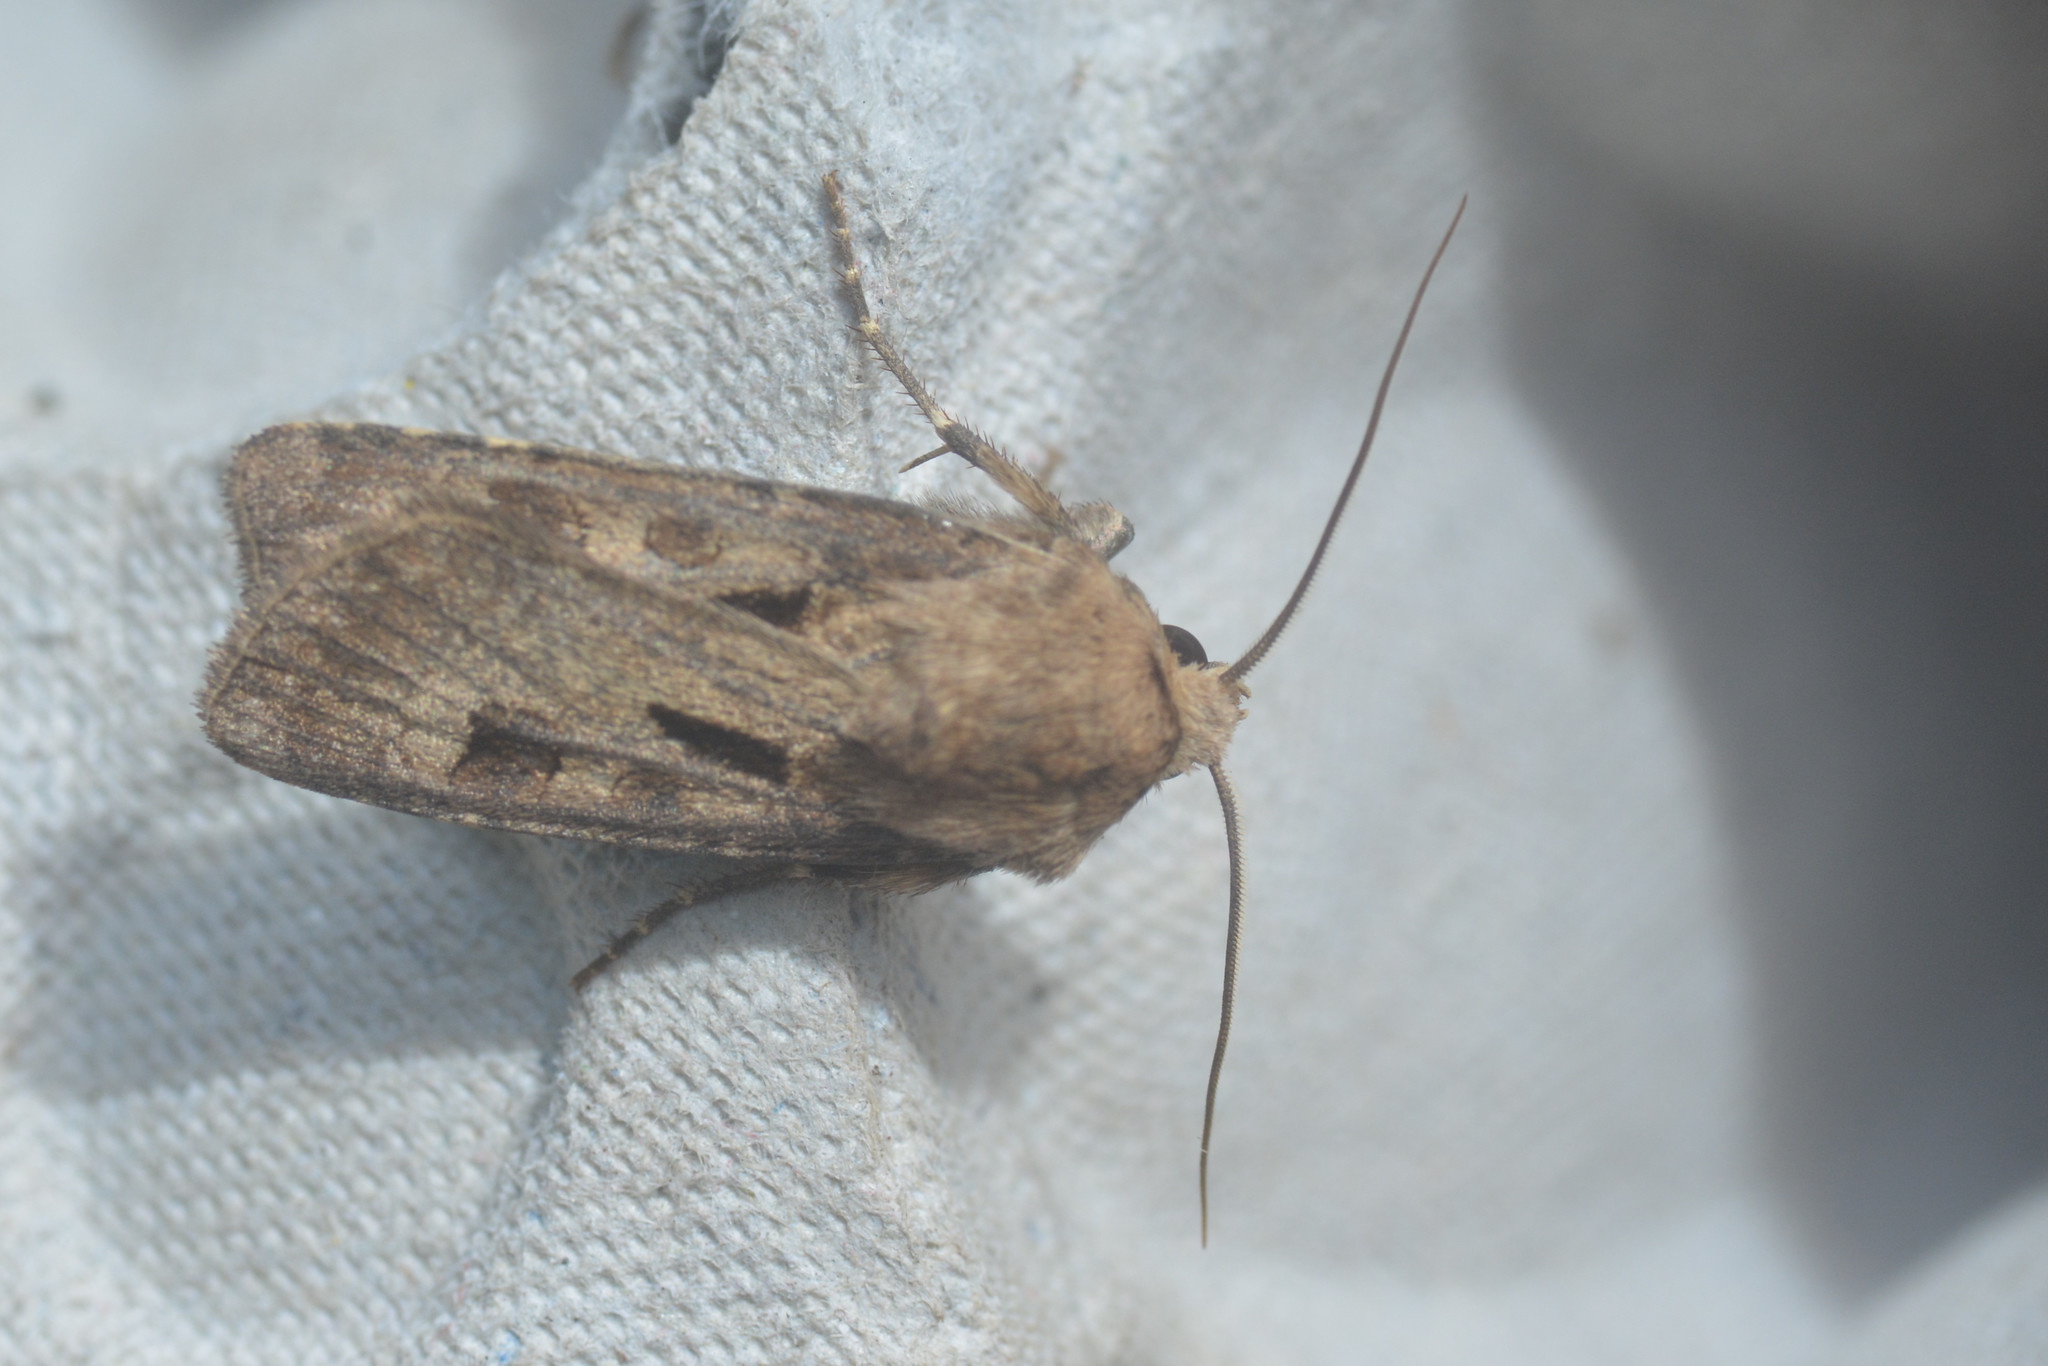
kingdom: Animalia
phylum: Arthropoda
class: Insecta
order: Lepidoptera
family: Noctuidae
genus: Agrotis
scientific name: Agrotis exclamationis
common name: Heart and dart
